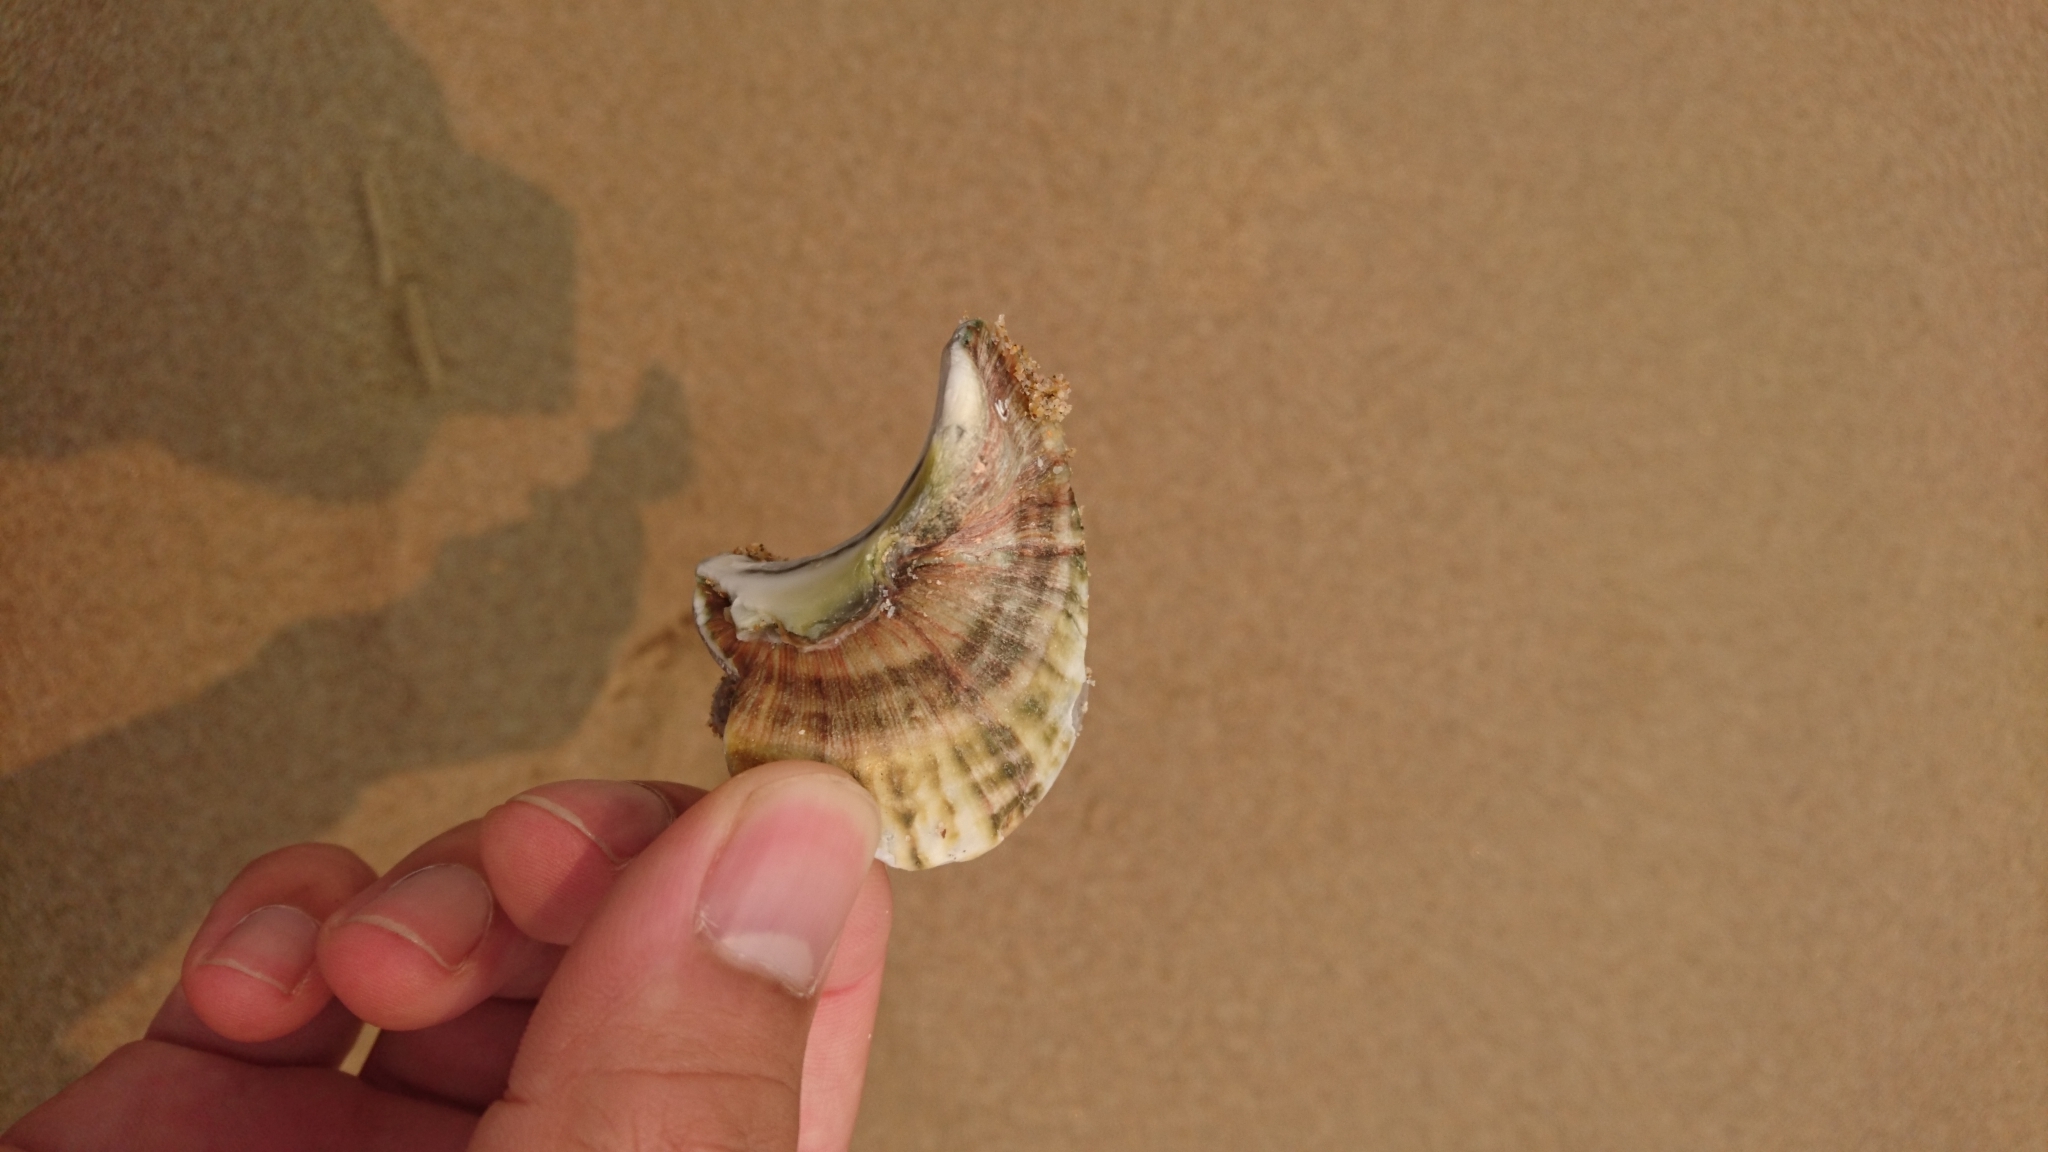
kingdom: Animalia
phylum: Mollusca
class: Gastropoda
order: Trochida
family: Turbinidae
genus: Turbo
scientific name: Turbo militaris
